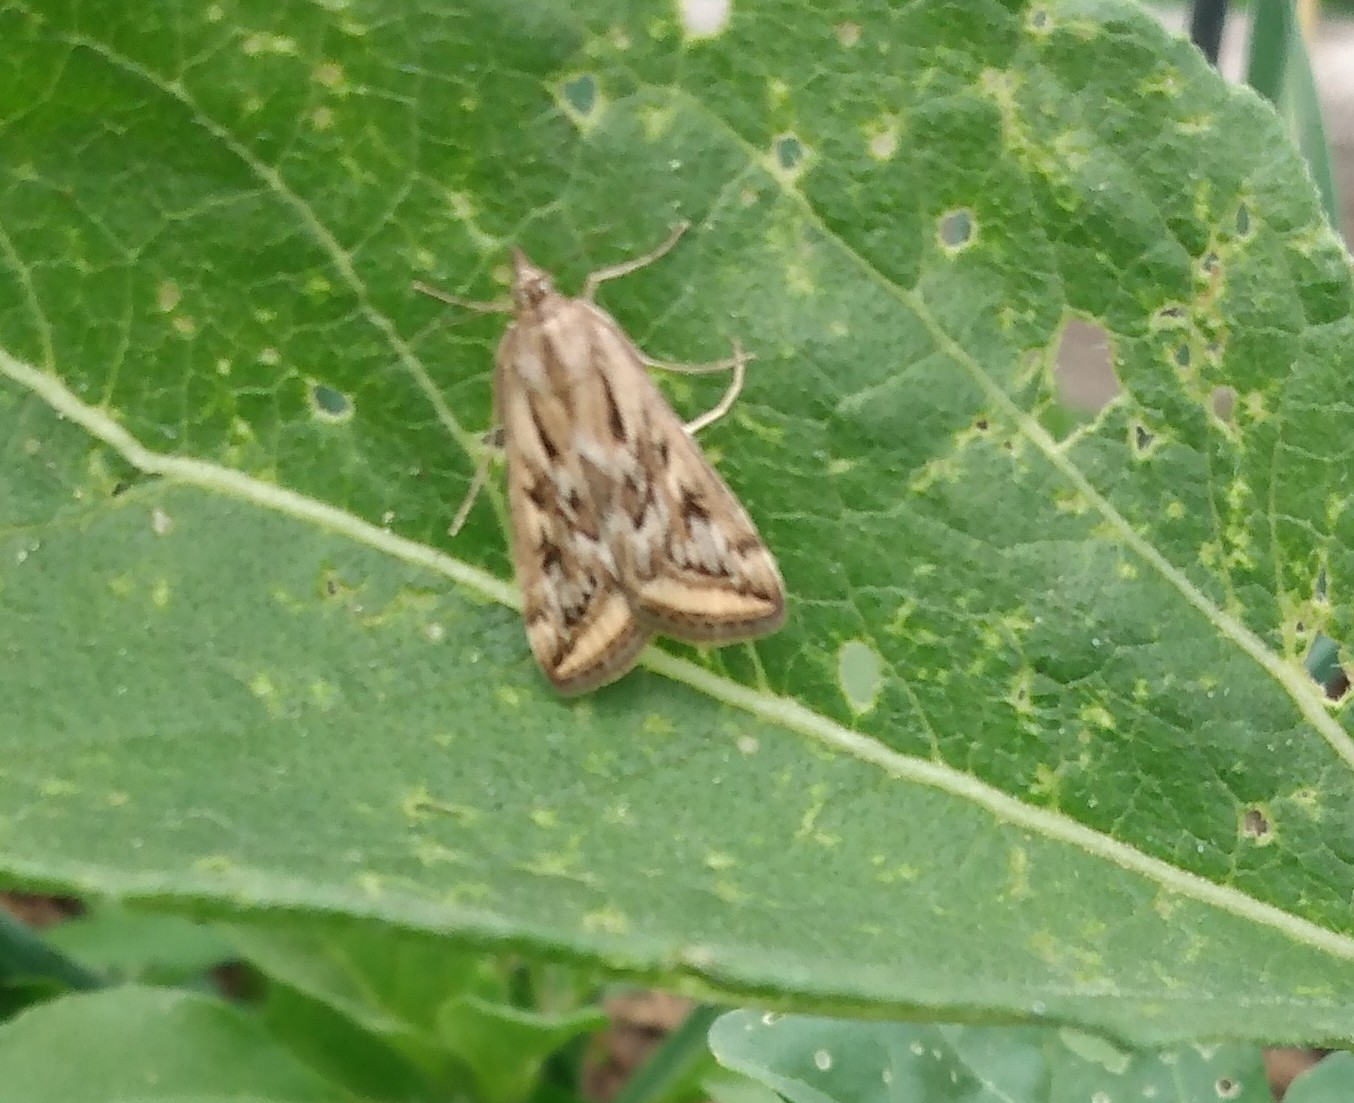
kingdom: Animalia
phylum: Arthropoda
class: Insecta
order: Lepidoptera
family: Crambidae
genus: Loxostege
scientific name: Loxostege cereralis
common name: Alfalfa webworm moth
